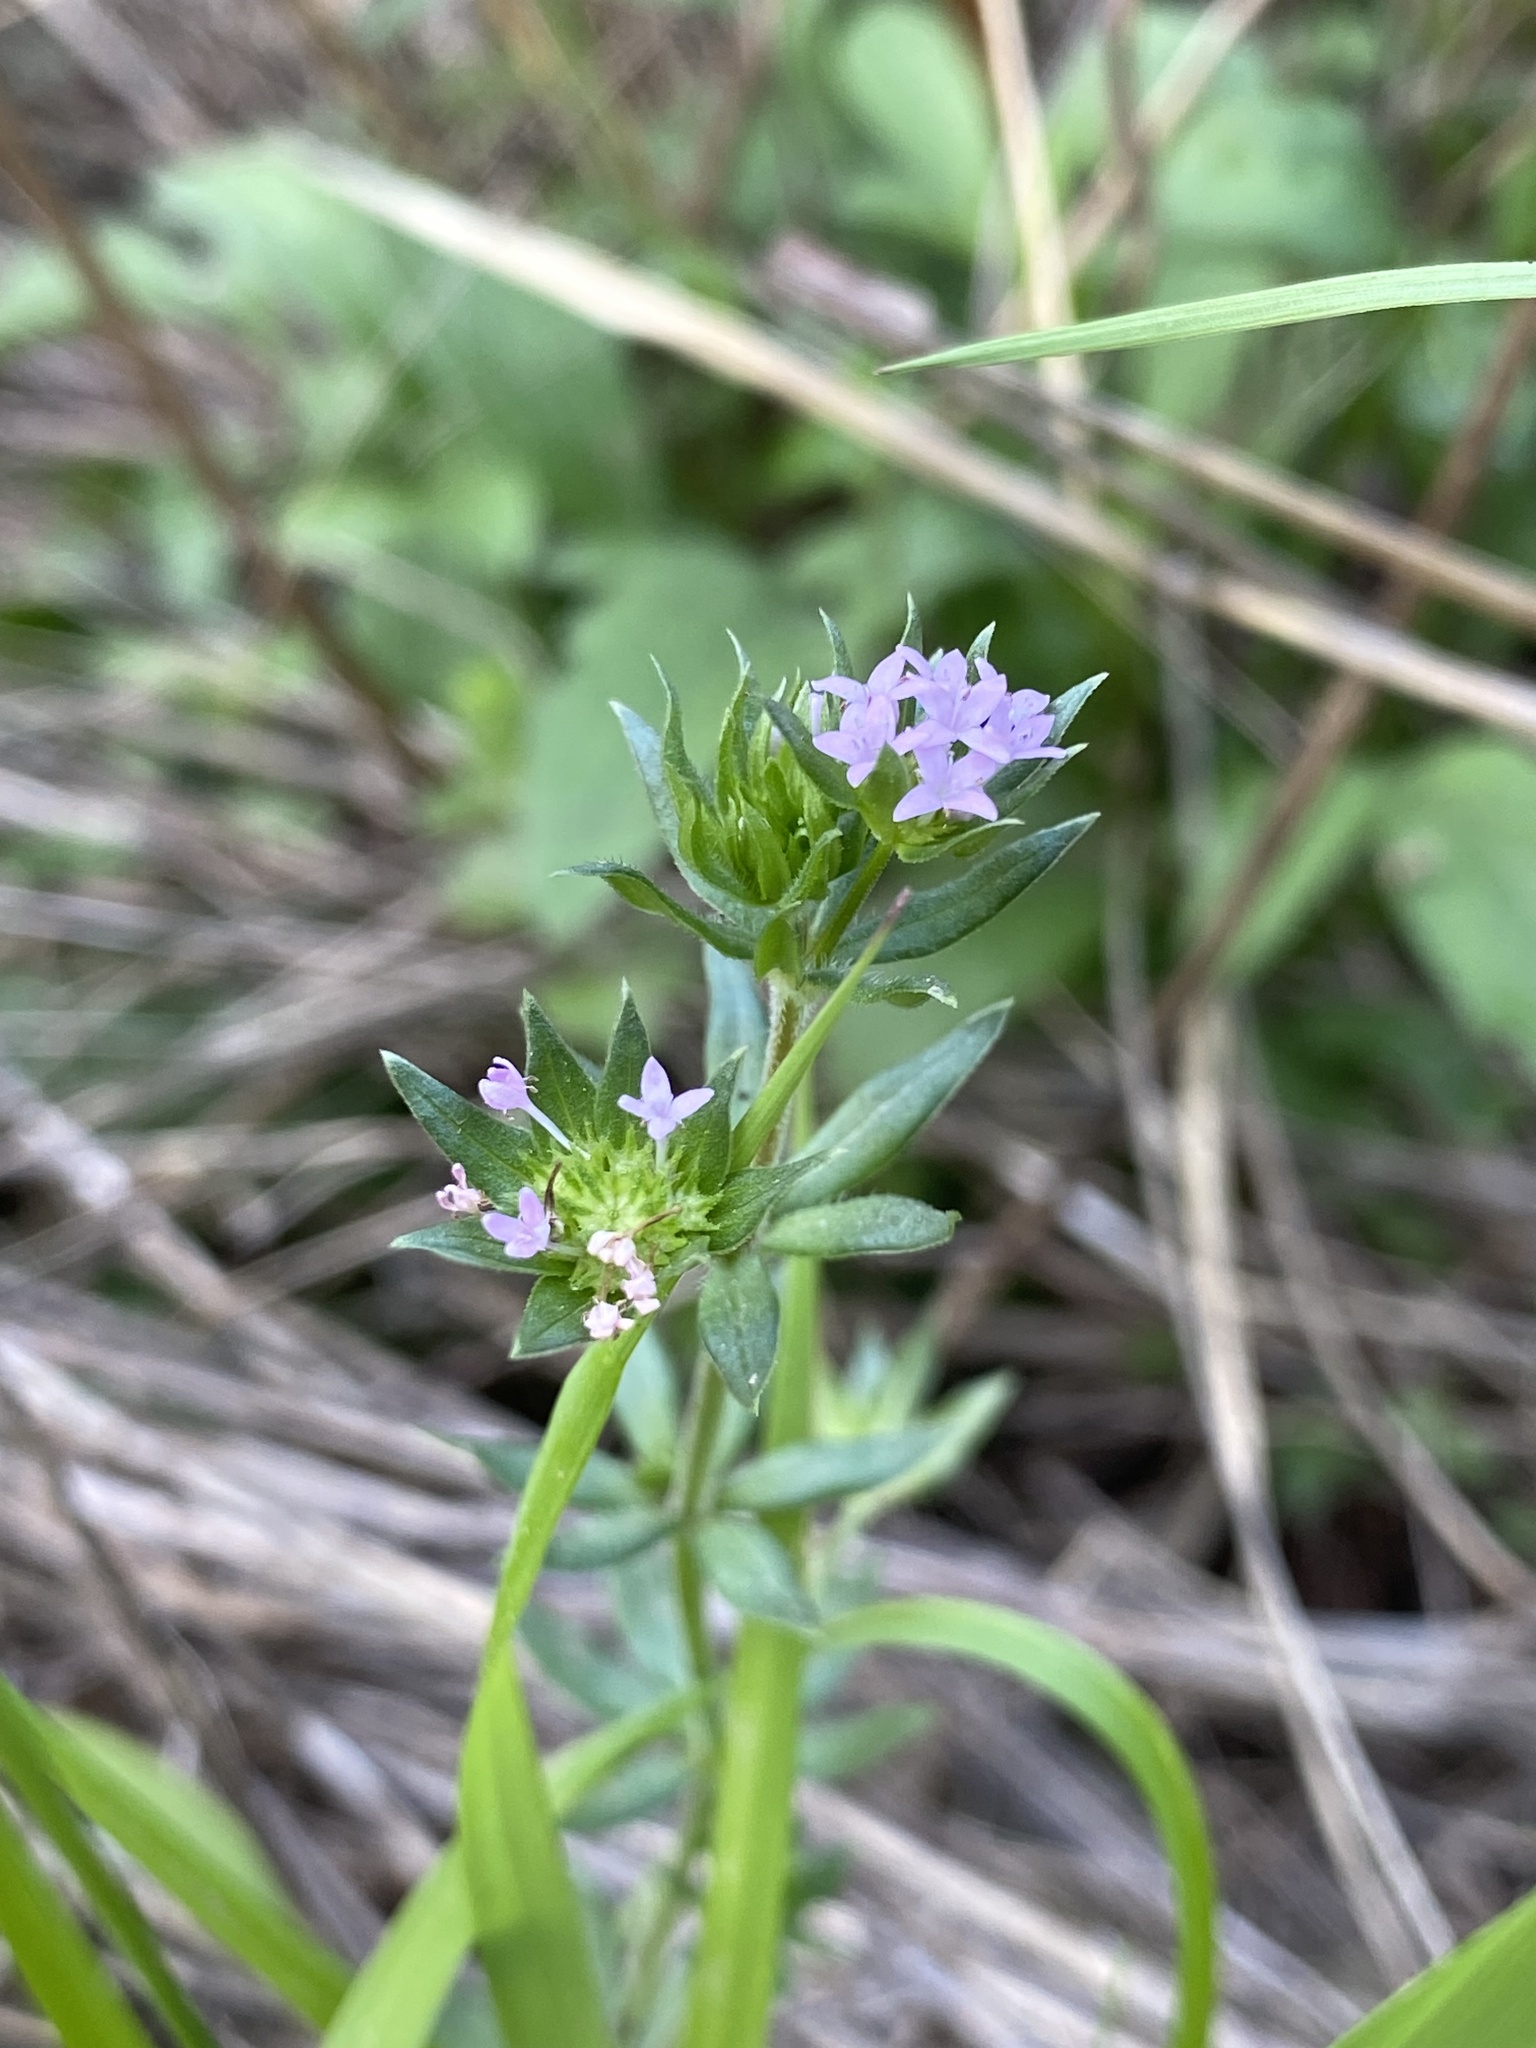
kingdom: Plantae
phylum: Tracheophyta
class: Magnoliopsida
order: Gentianales
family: Rubiaceae
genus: Sherardia
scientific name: Sherardia arvensis
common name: Field madder
